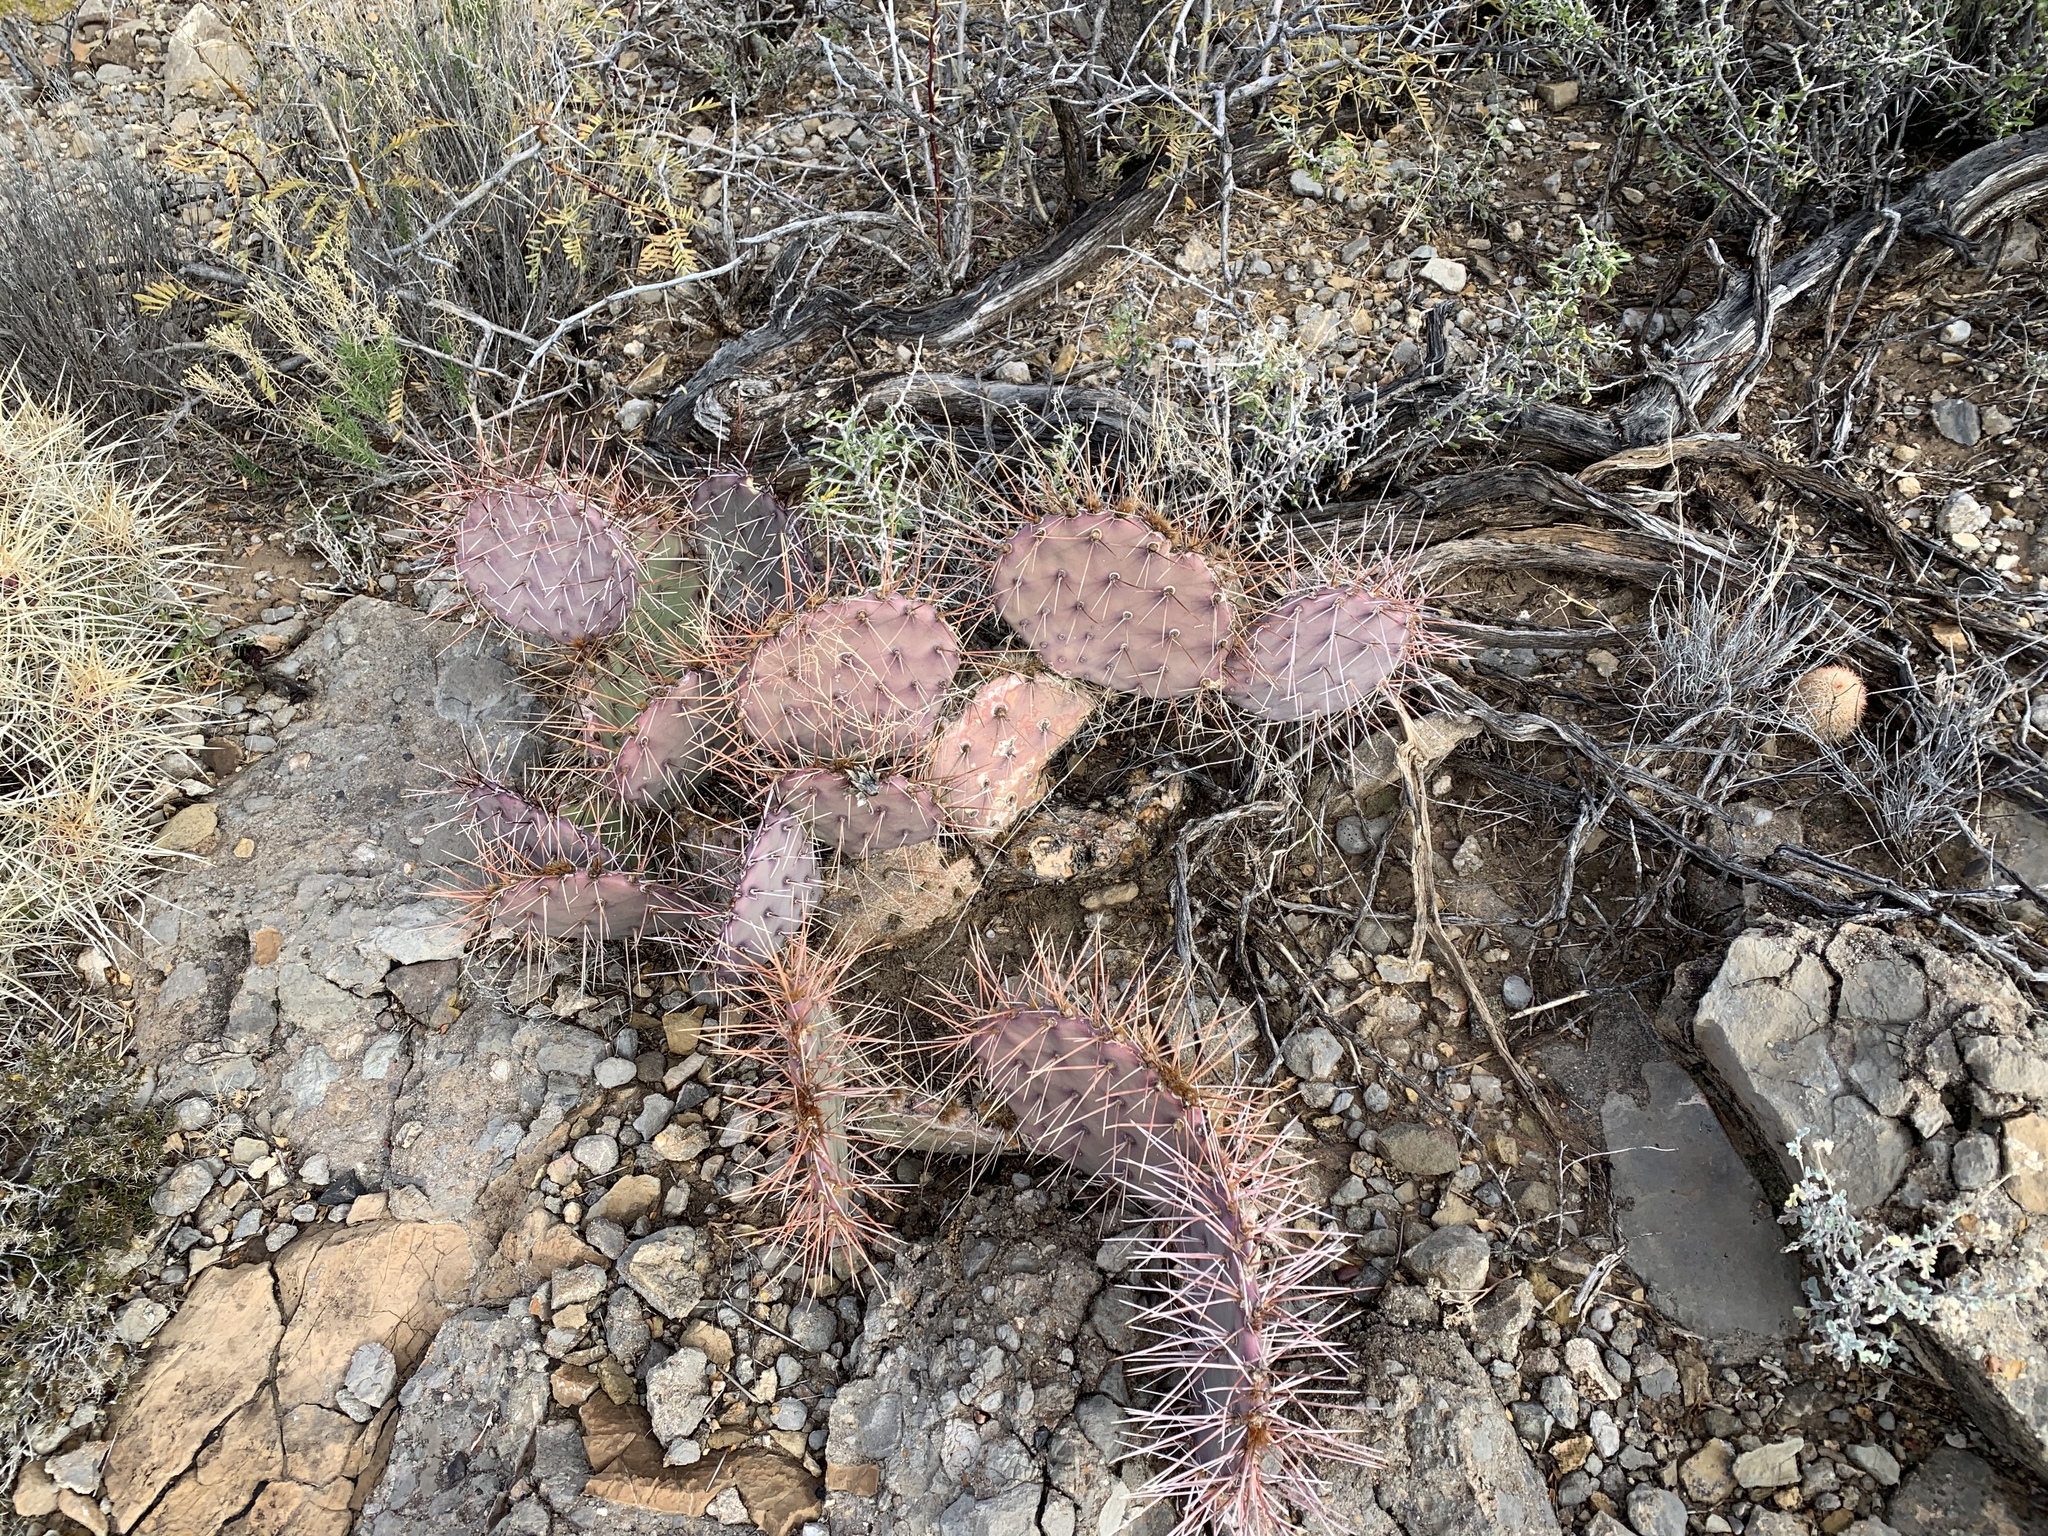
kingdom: Plantae
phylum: Tracheophyta
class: Magnoliopsida
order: Caryophyllales
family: Cactaceae
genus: Opuntia
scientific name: Opuntia macrocentra
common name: Purple prickly-pear
